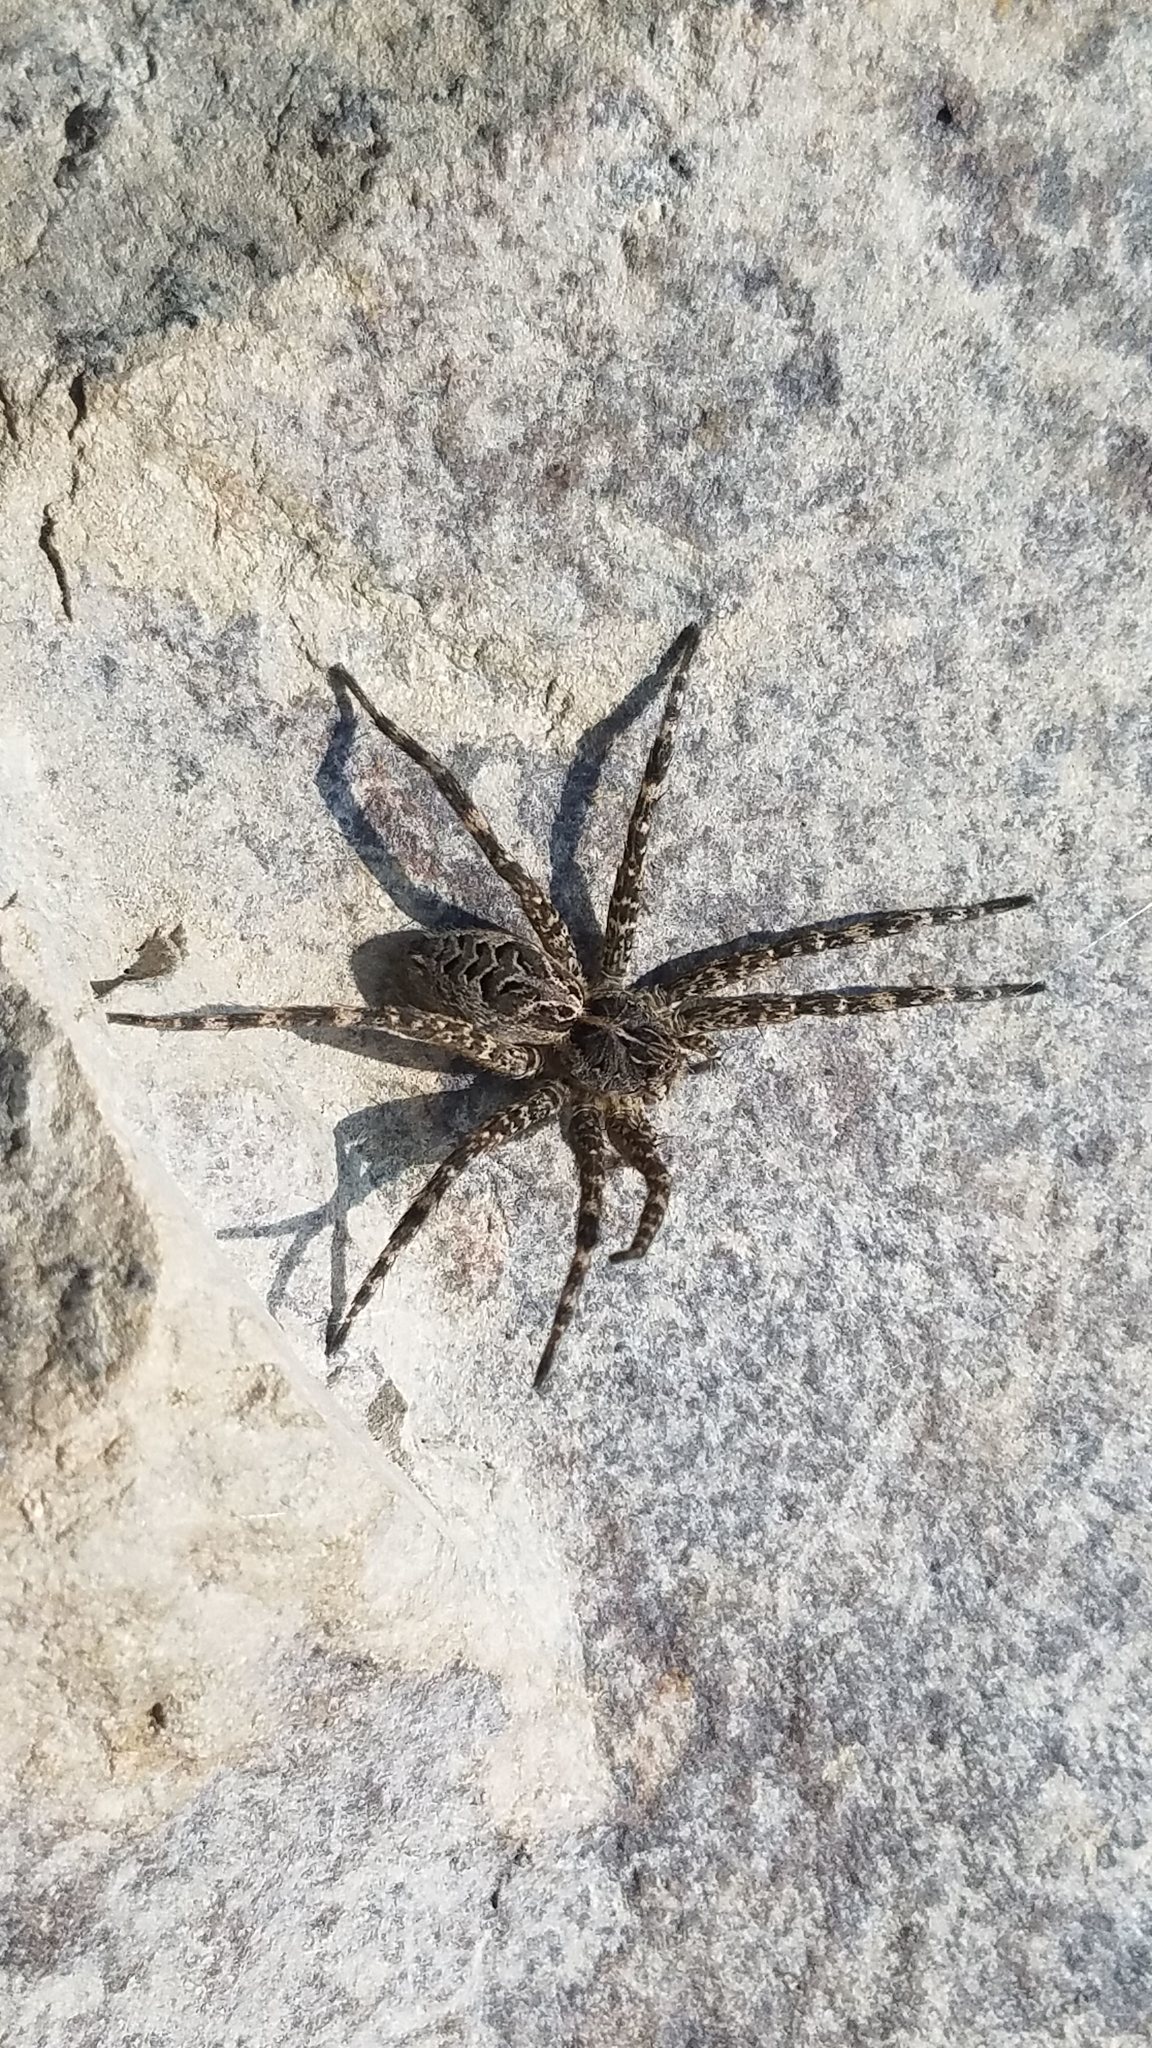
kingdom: Animalia
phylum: Arthropoda
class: Arachnida
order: Araneae
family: Pisauridae
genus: Dolomedes
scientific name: Dolomedes scriptus
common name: Striped fishing spider
